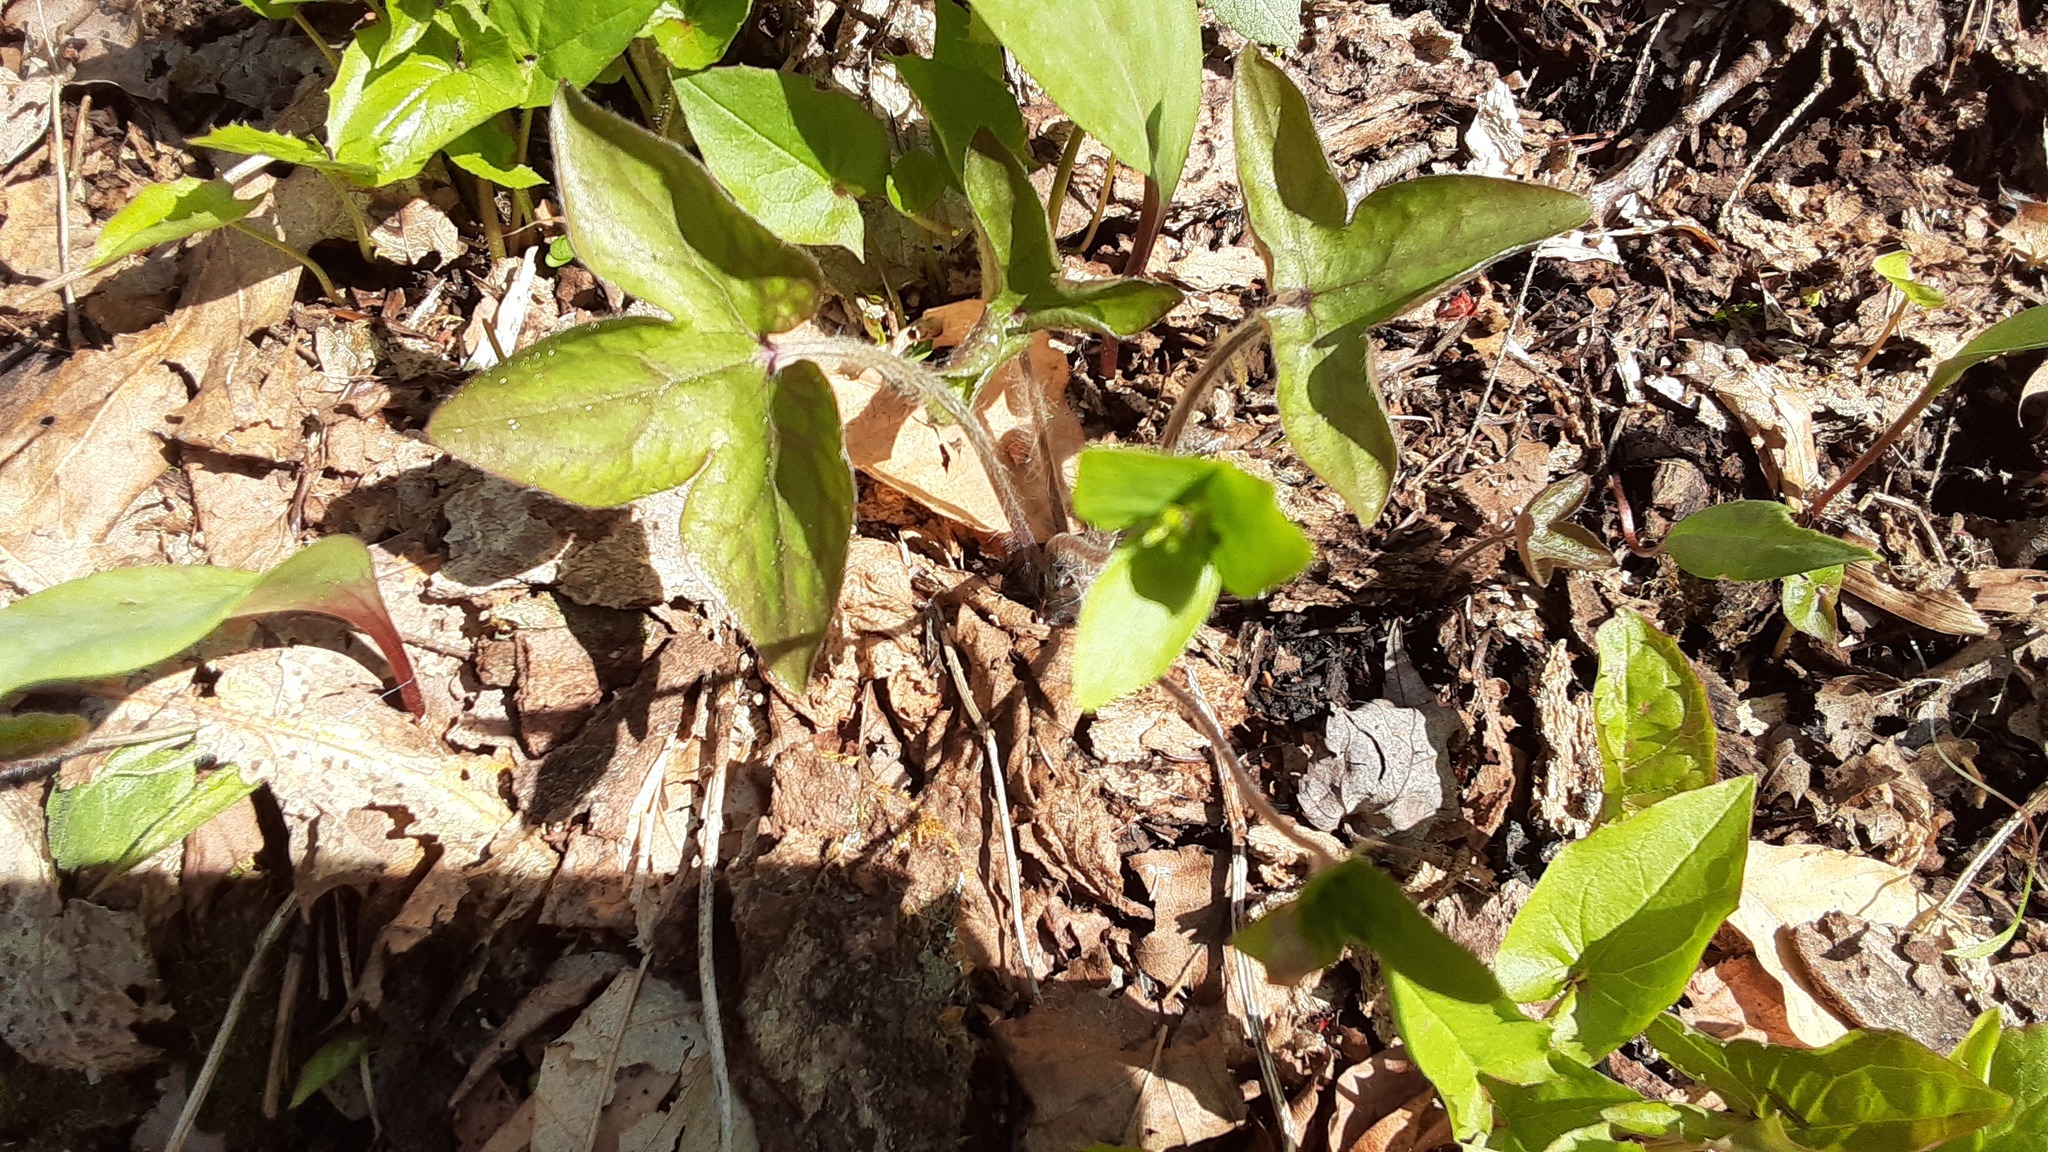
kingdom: Plantae
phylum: Tracheophyta
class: Magnoliopsida
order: Ranunculales
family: Ranunculaceae
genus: Hepatica
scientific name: Hepatica acutiloba
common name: Sharp-lobed hepatica
